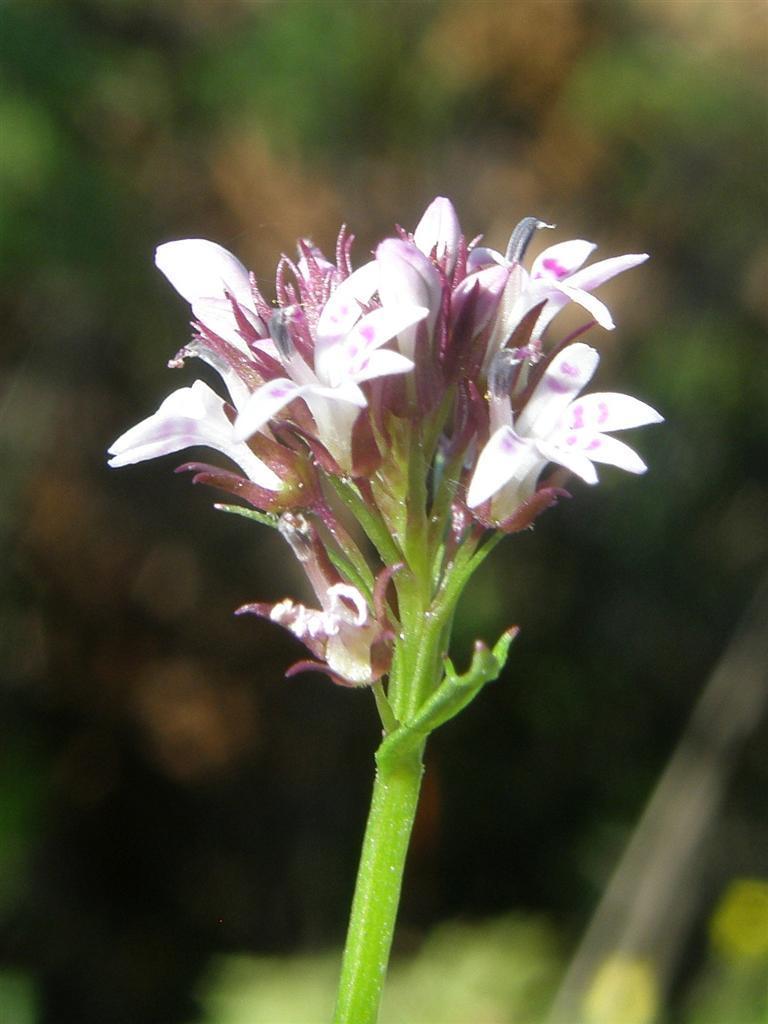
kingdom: Plantae
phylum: Tracheophyta
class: Magnoliopsida
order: Asterales
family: Campanulaceae
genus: Lobelia
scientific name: Lobelia jasionoides
